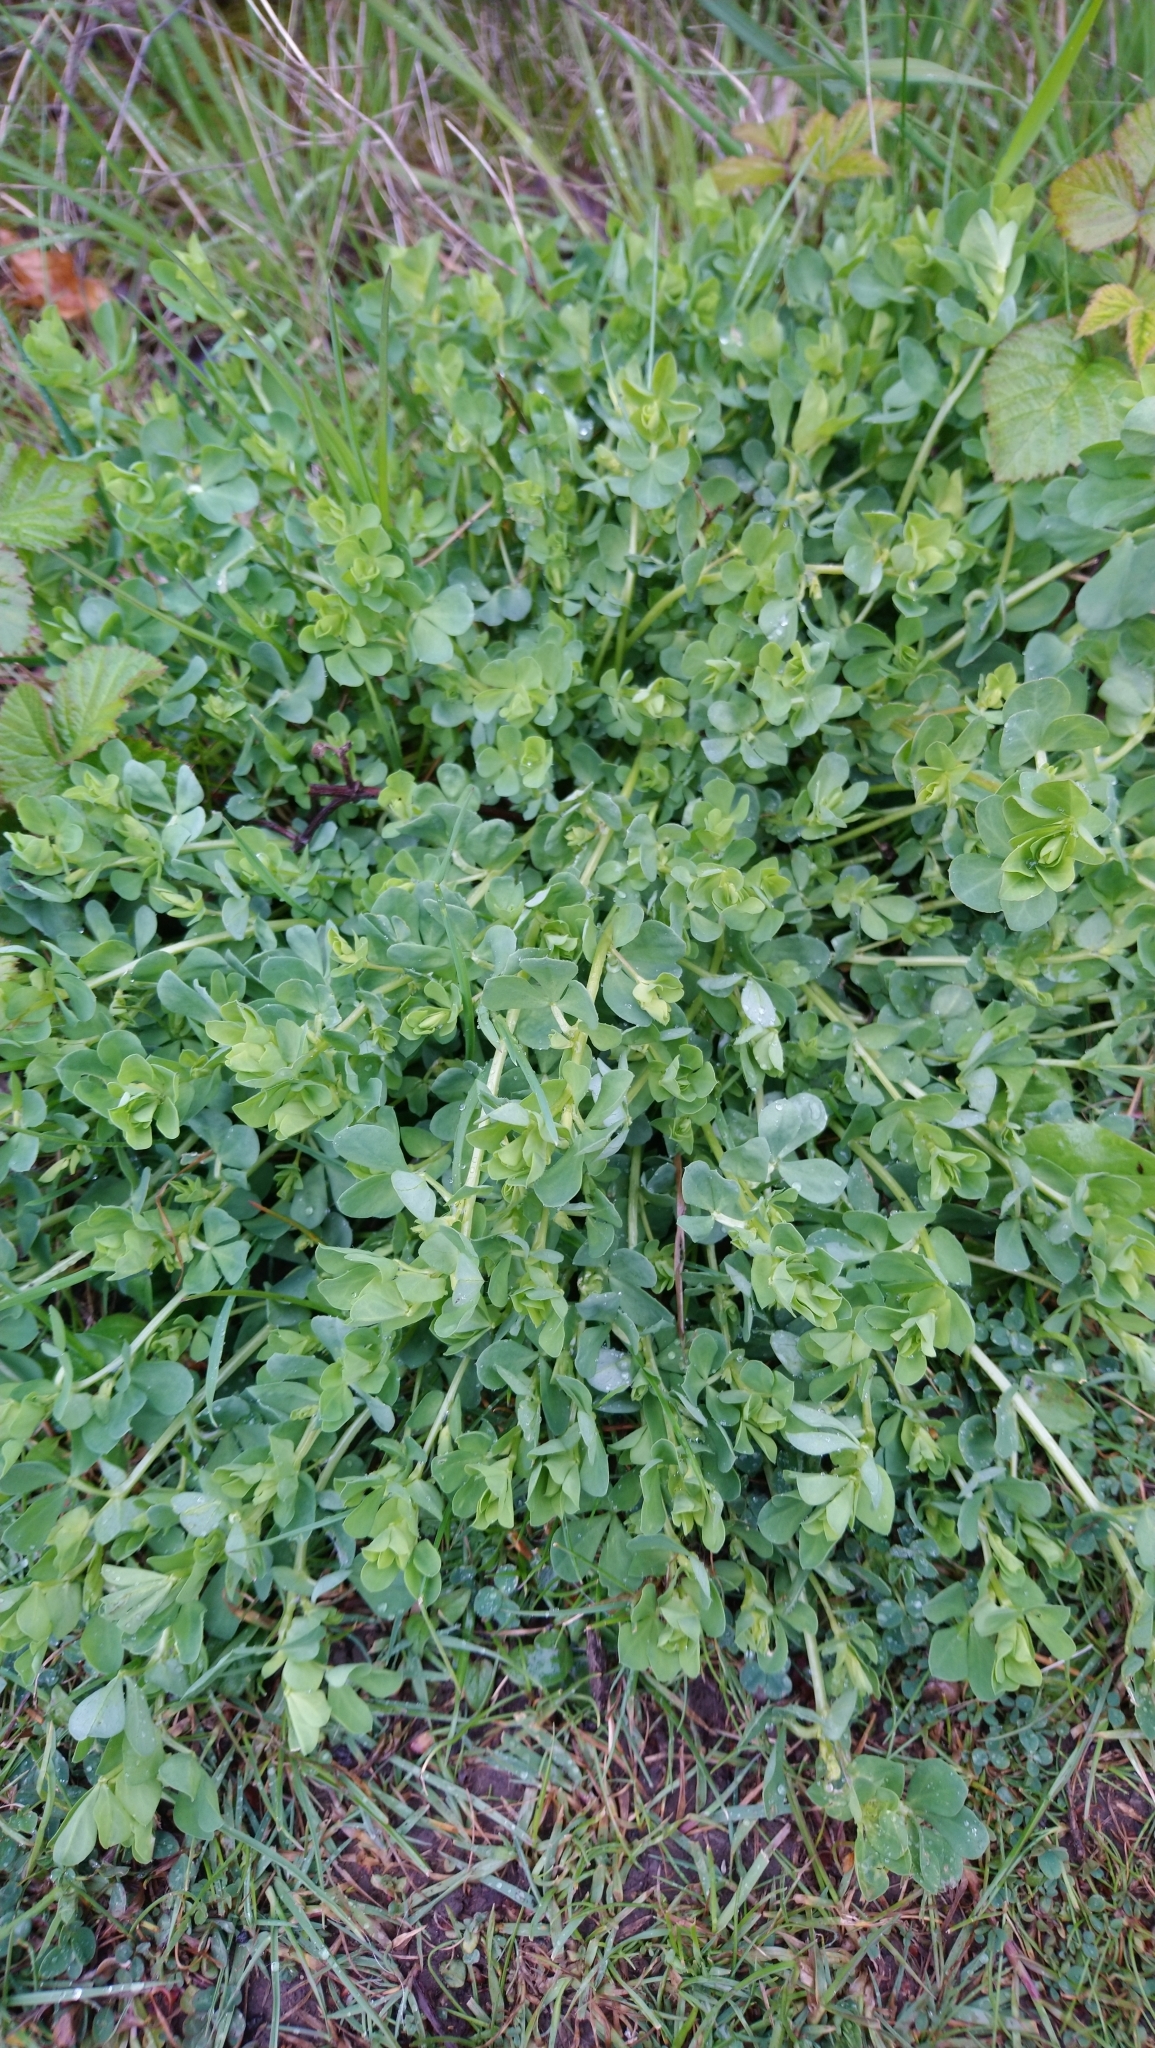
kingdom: Plantae
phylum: Tracheophyta
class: Magnoliopsida
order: Fabales
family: Fabaceae
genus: Lotus
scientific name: Lotus corniculatus
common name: Common bird's-foot-trefoil
